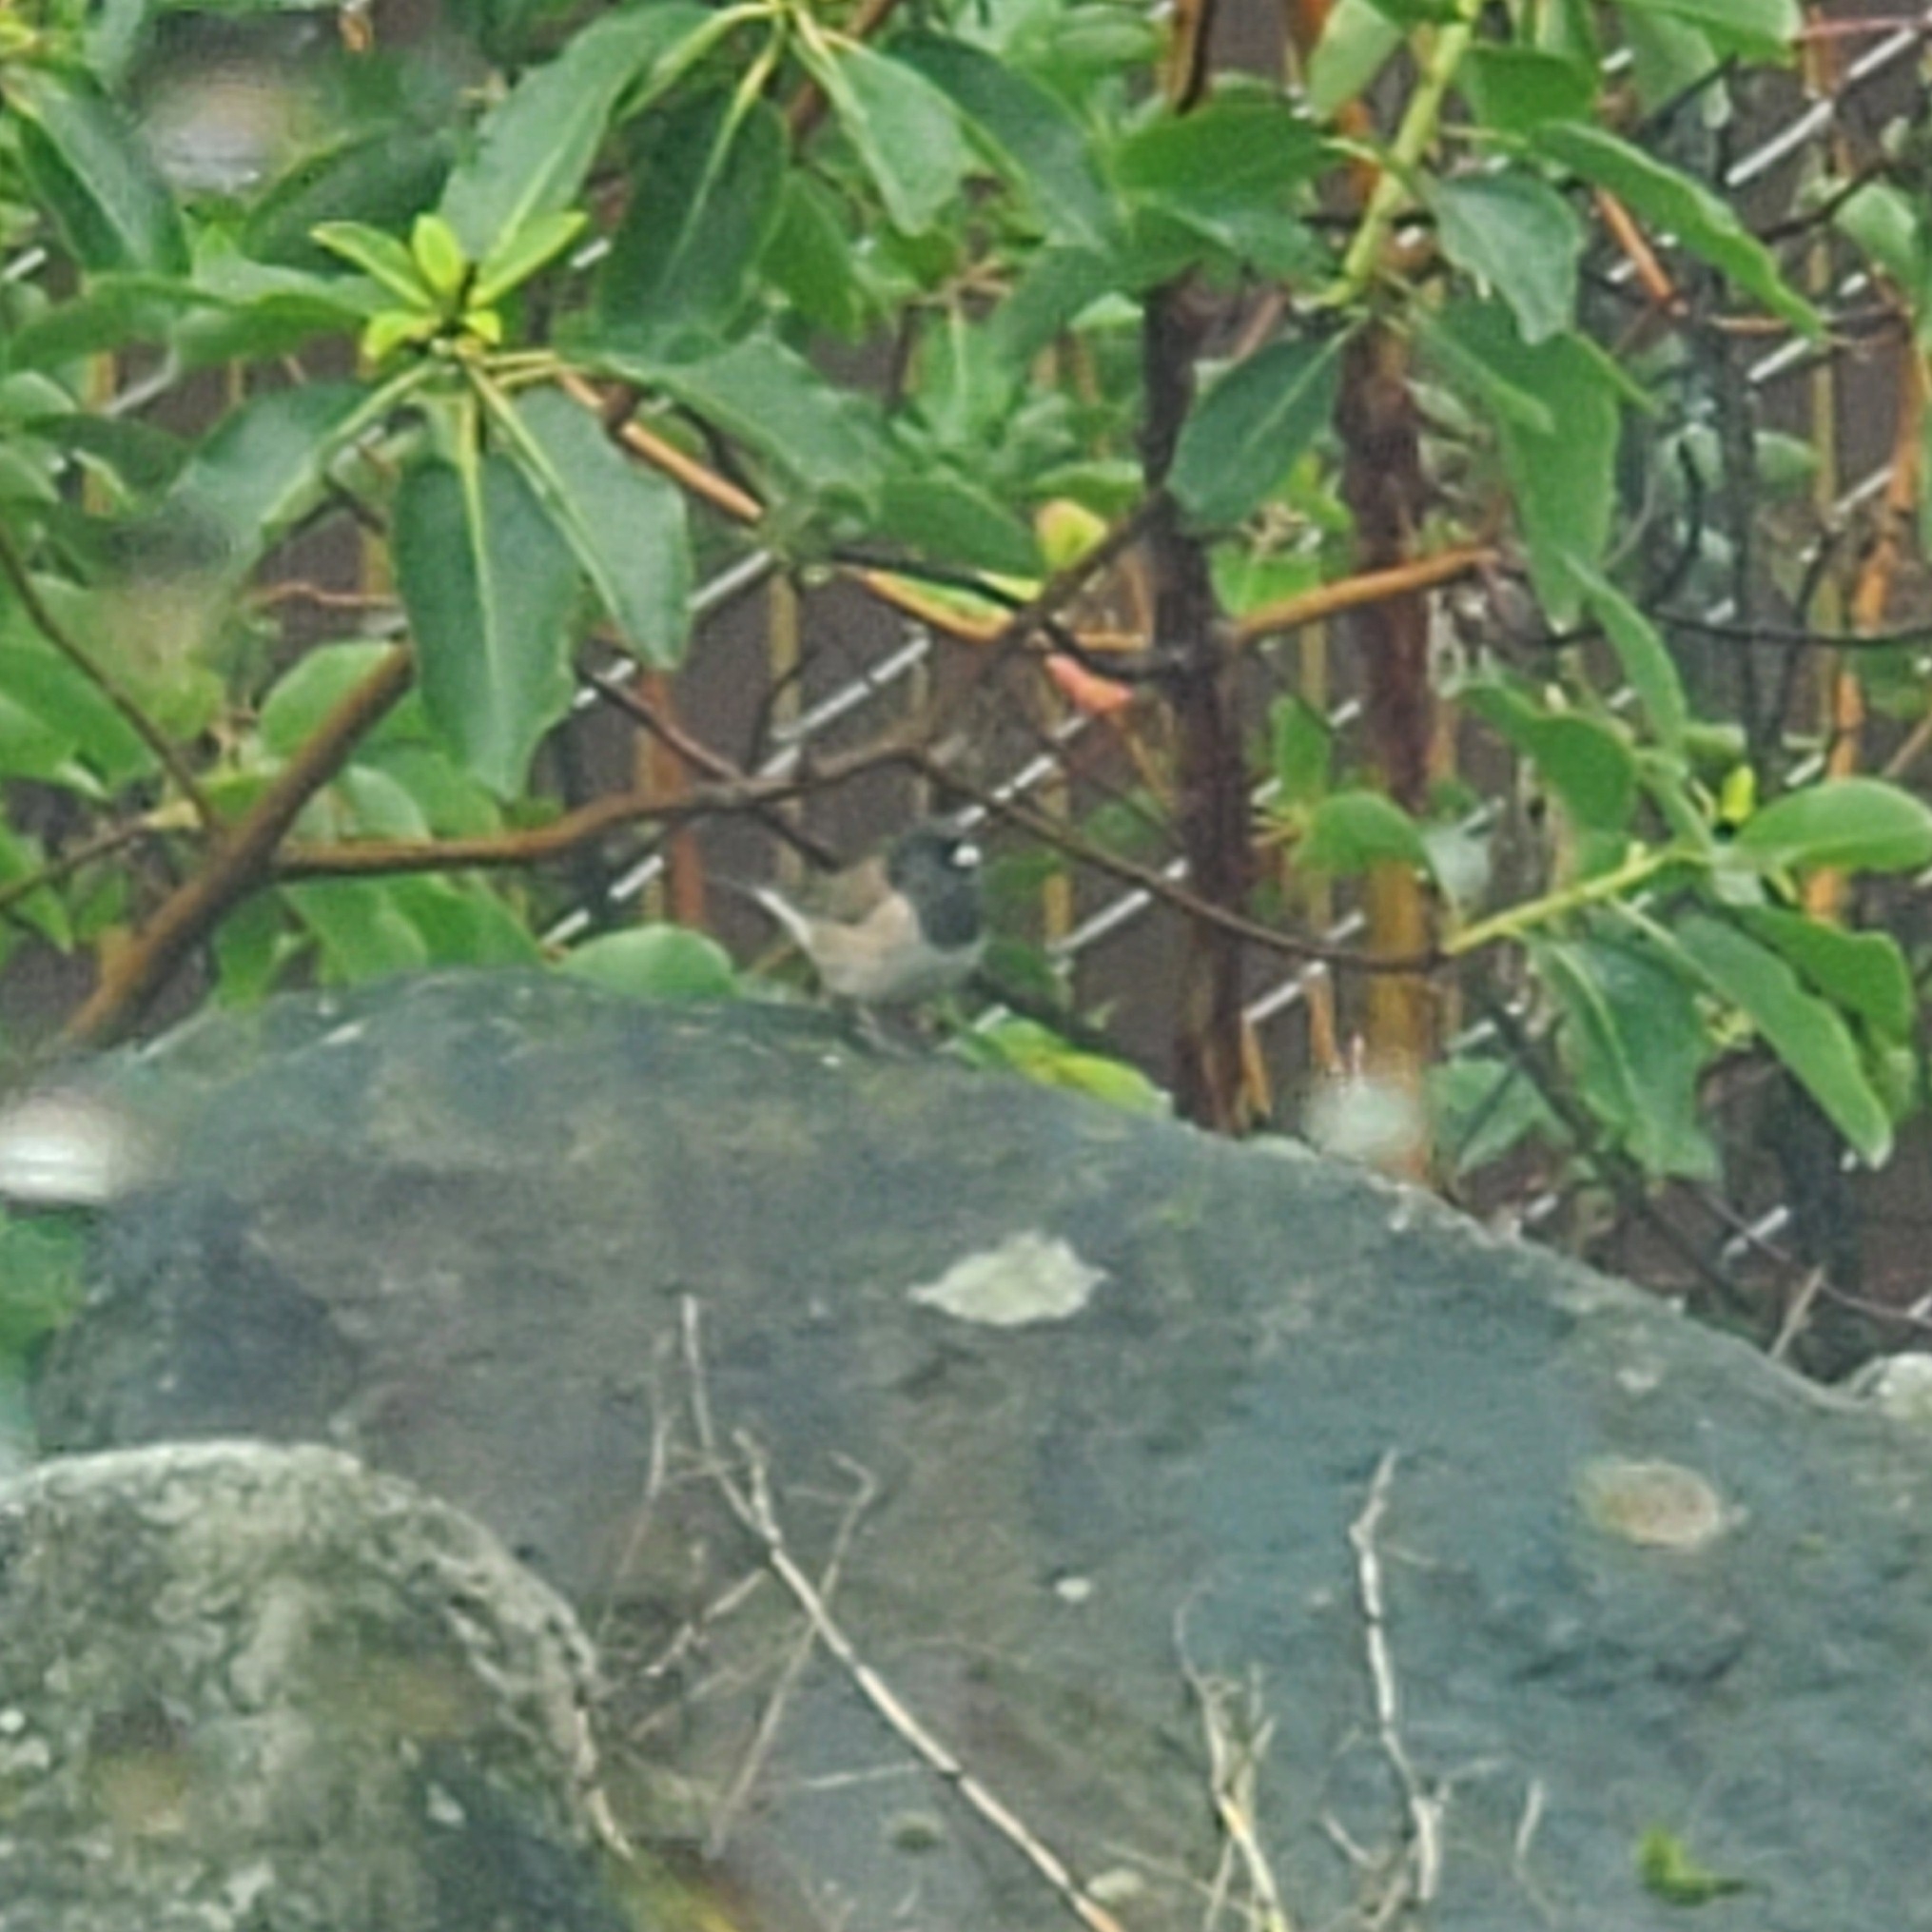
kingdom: Animalia
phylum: Chordata
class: Aves
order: Passeriformes
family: Passerellidae
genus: Junco
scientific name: Junco hyemalis
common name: Dark-eyed junco
